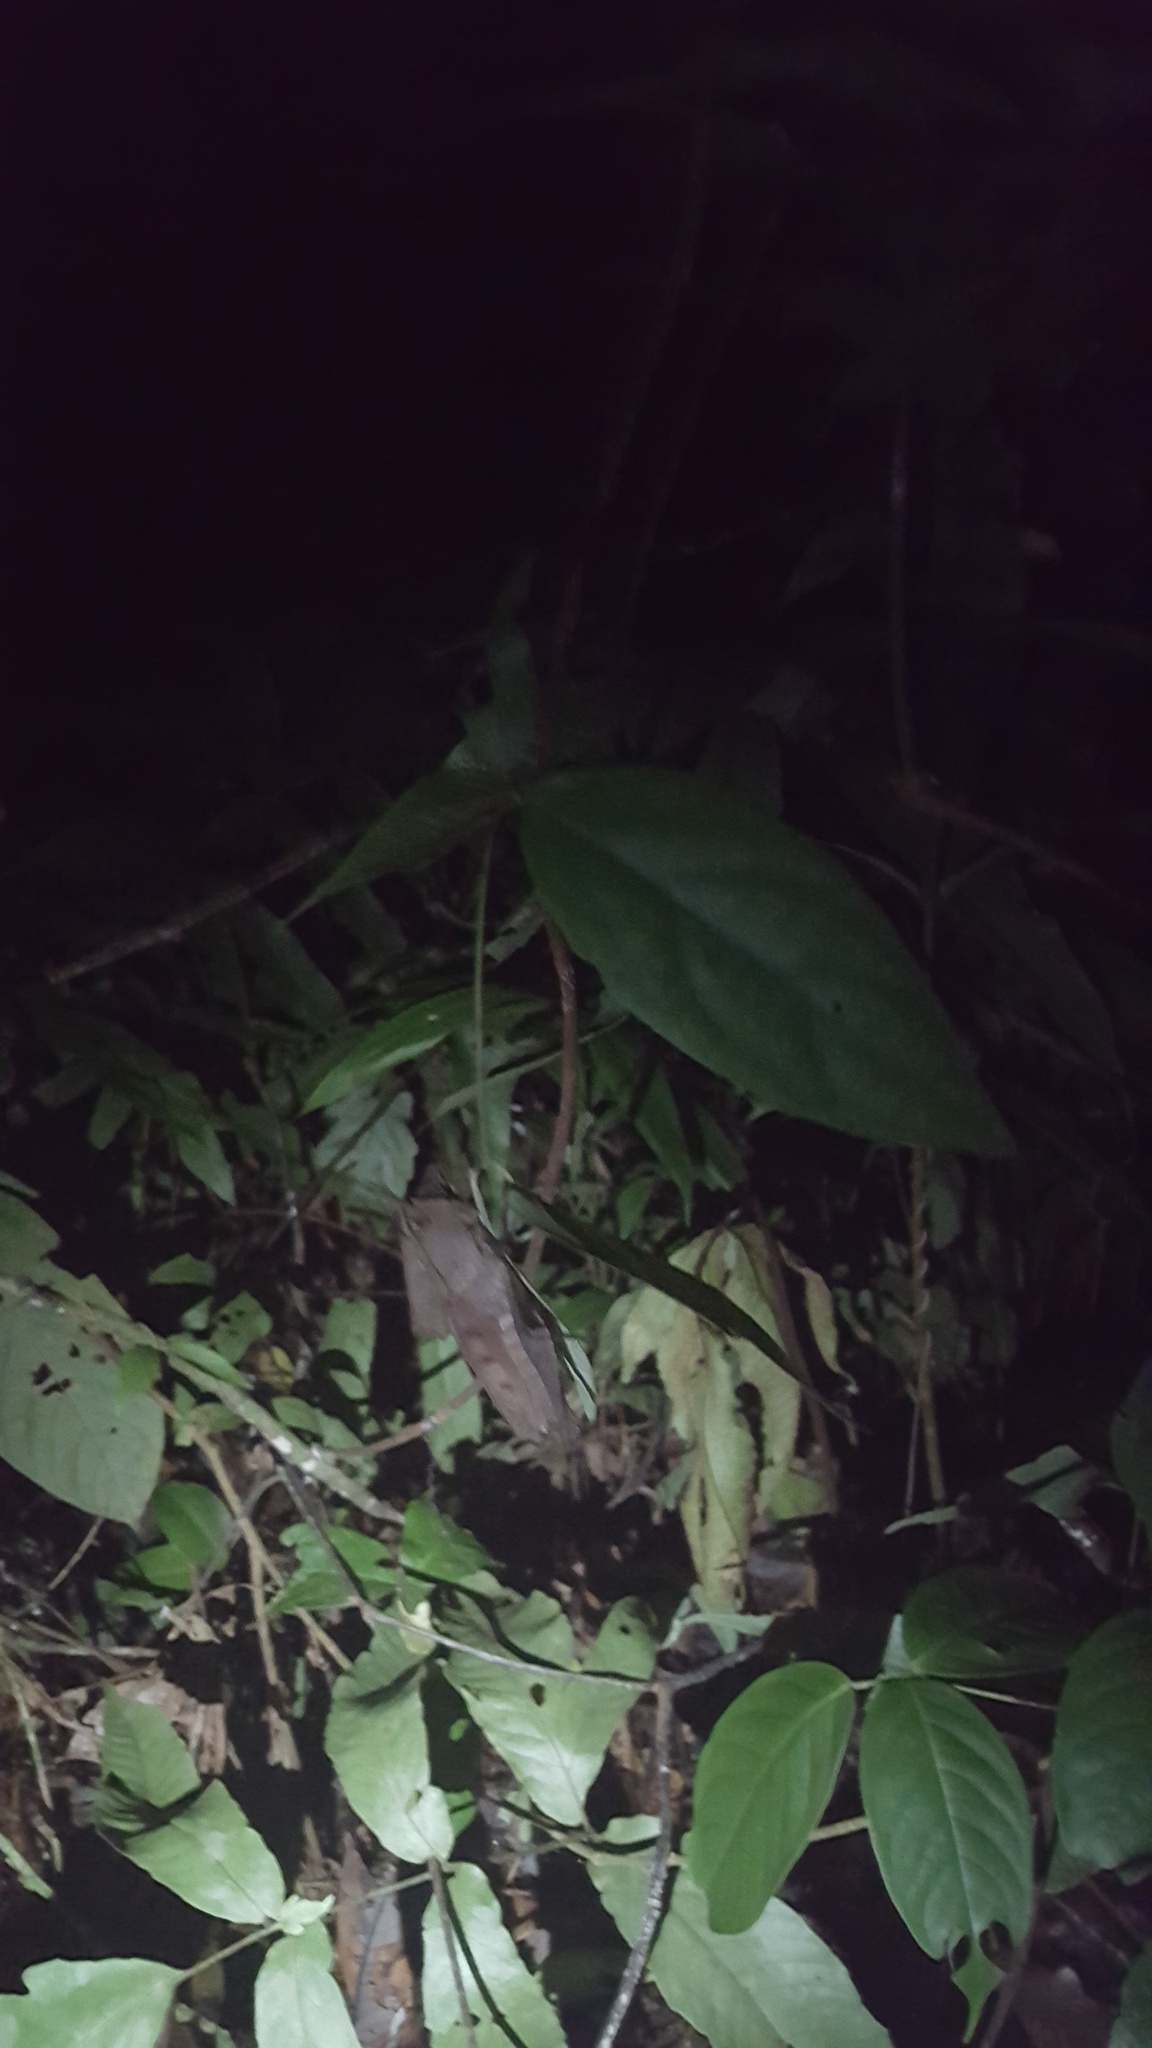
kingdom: Animalia
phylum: Arthropoda
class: Insecta
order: Orthoptera
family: Romaleidae
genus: Colpolopha
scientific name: Colpolopha praemorsa
